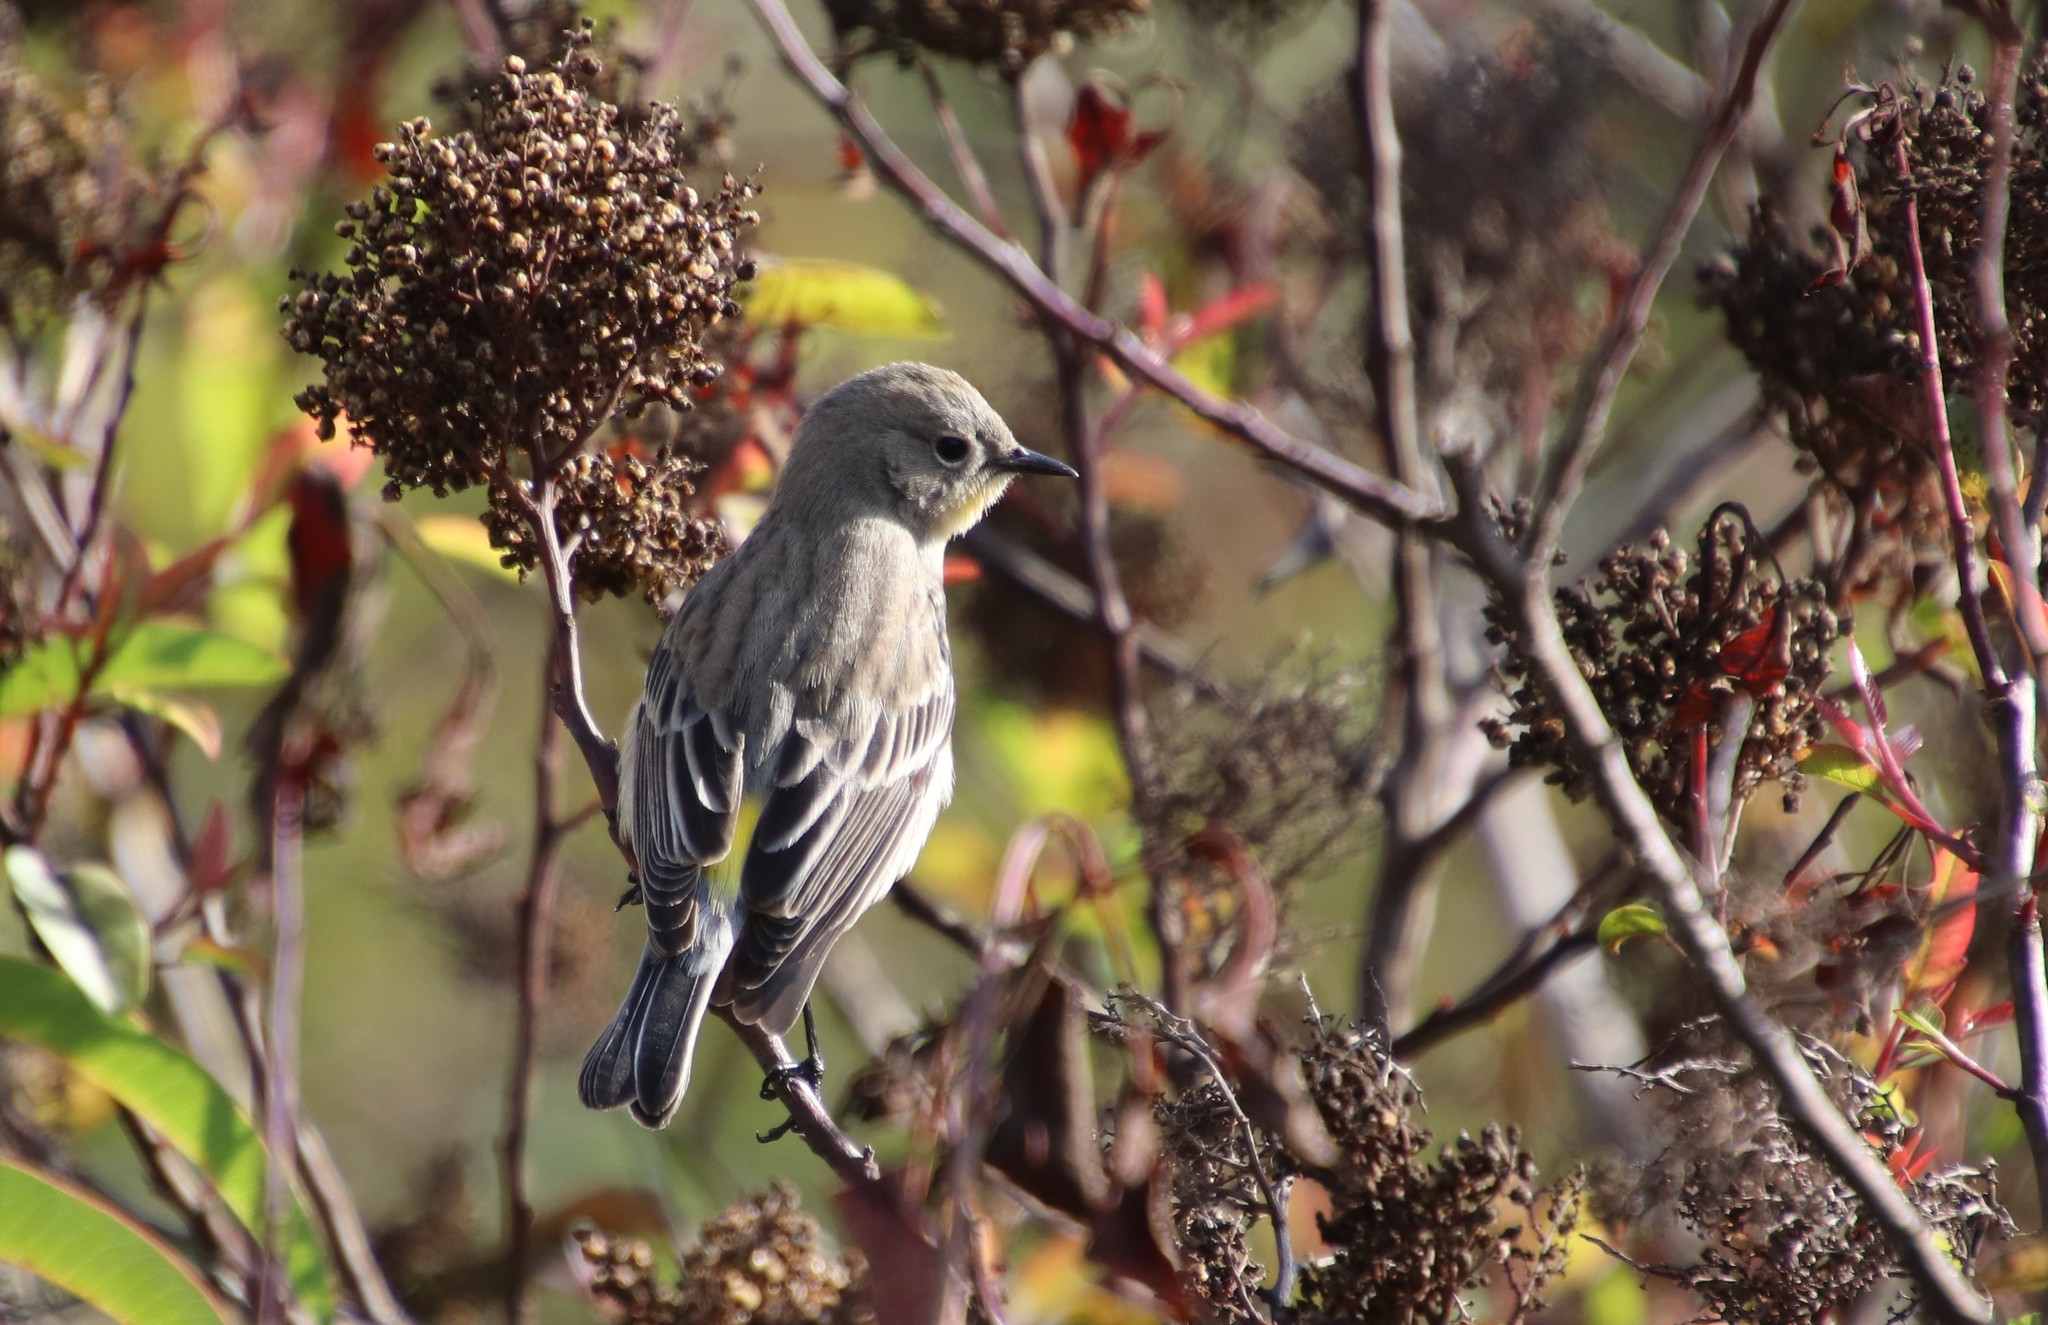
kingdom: Animalia
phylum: Chordata
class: Aves
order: Passeriformes
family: Parulidae
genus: Setophaga
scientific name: Setophaga coronata
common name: Myrtle warbler
